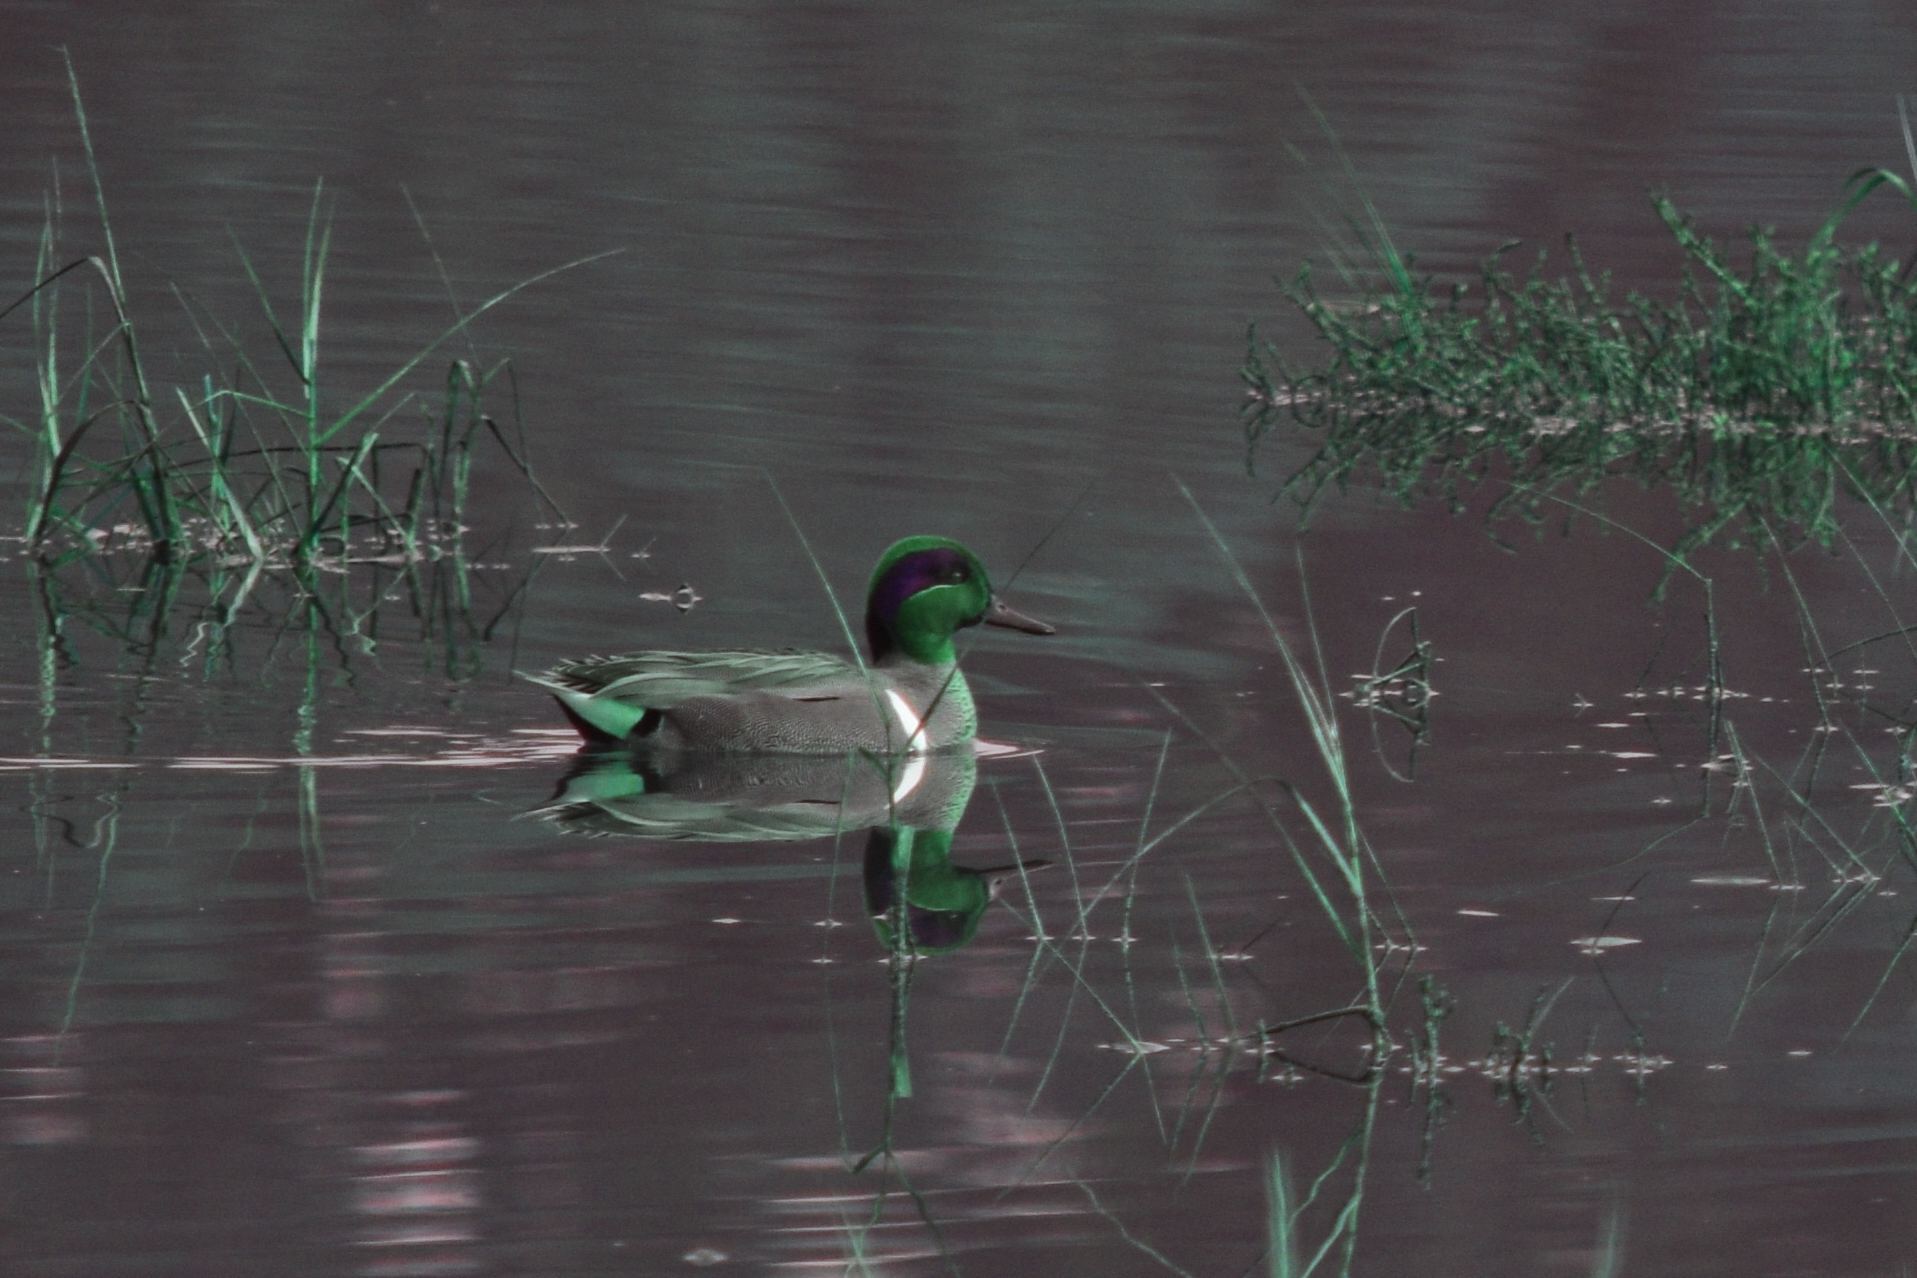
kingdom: Animalia
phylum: Chordata
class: Aves
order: Anseriformes
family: Anatidae
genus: Anas
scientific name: Anas crecca
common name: Eurasian teal
